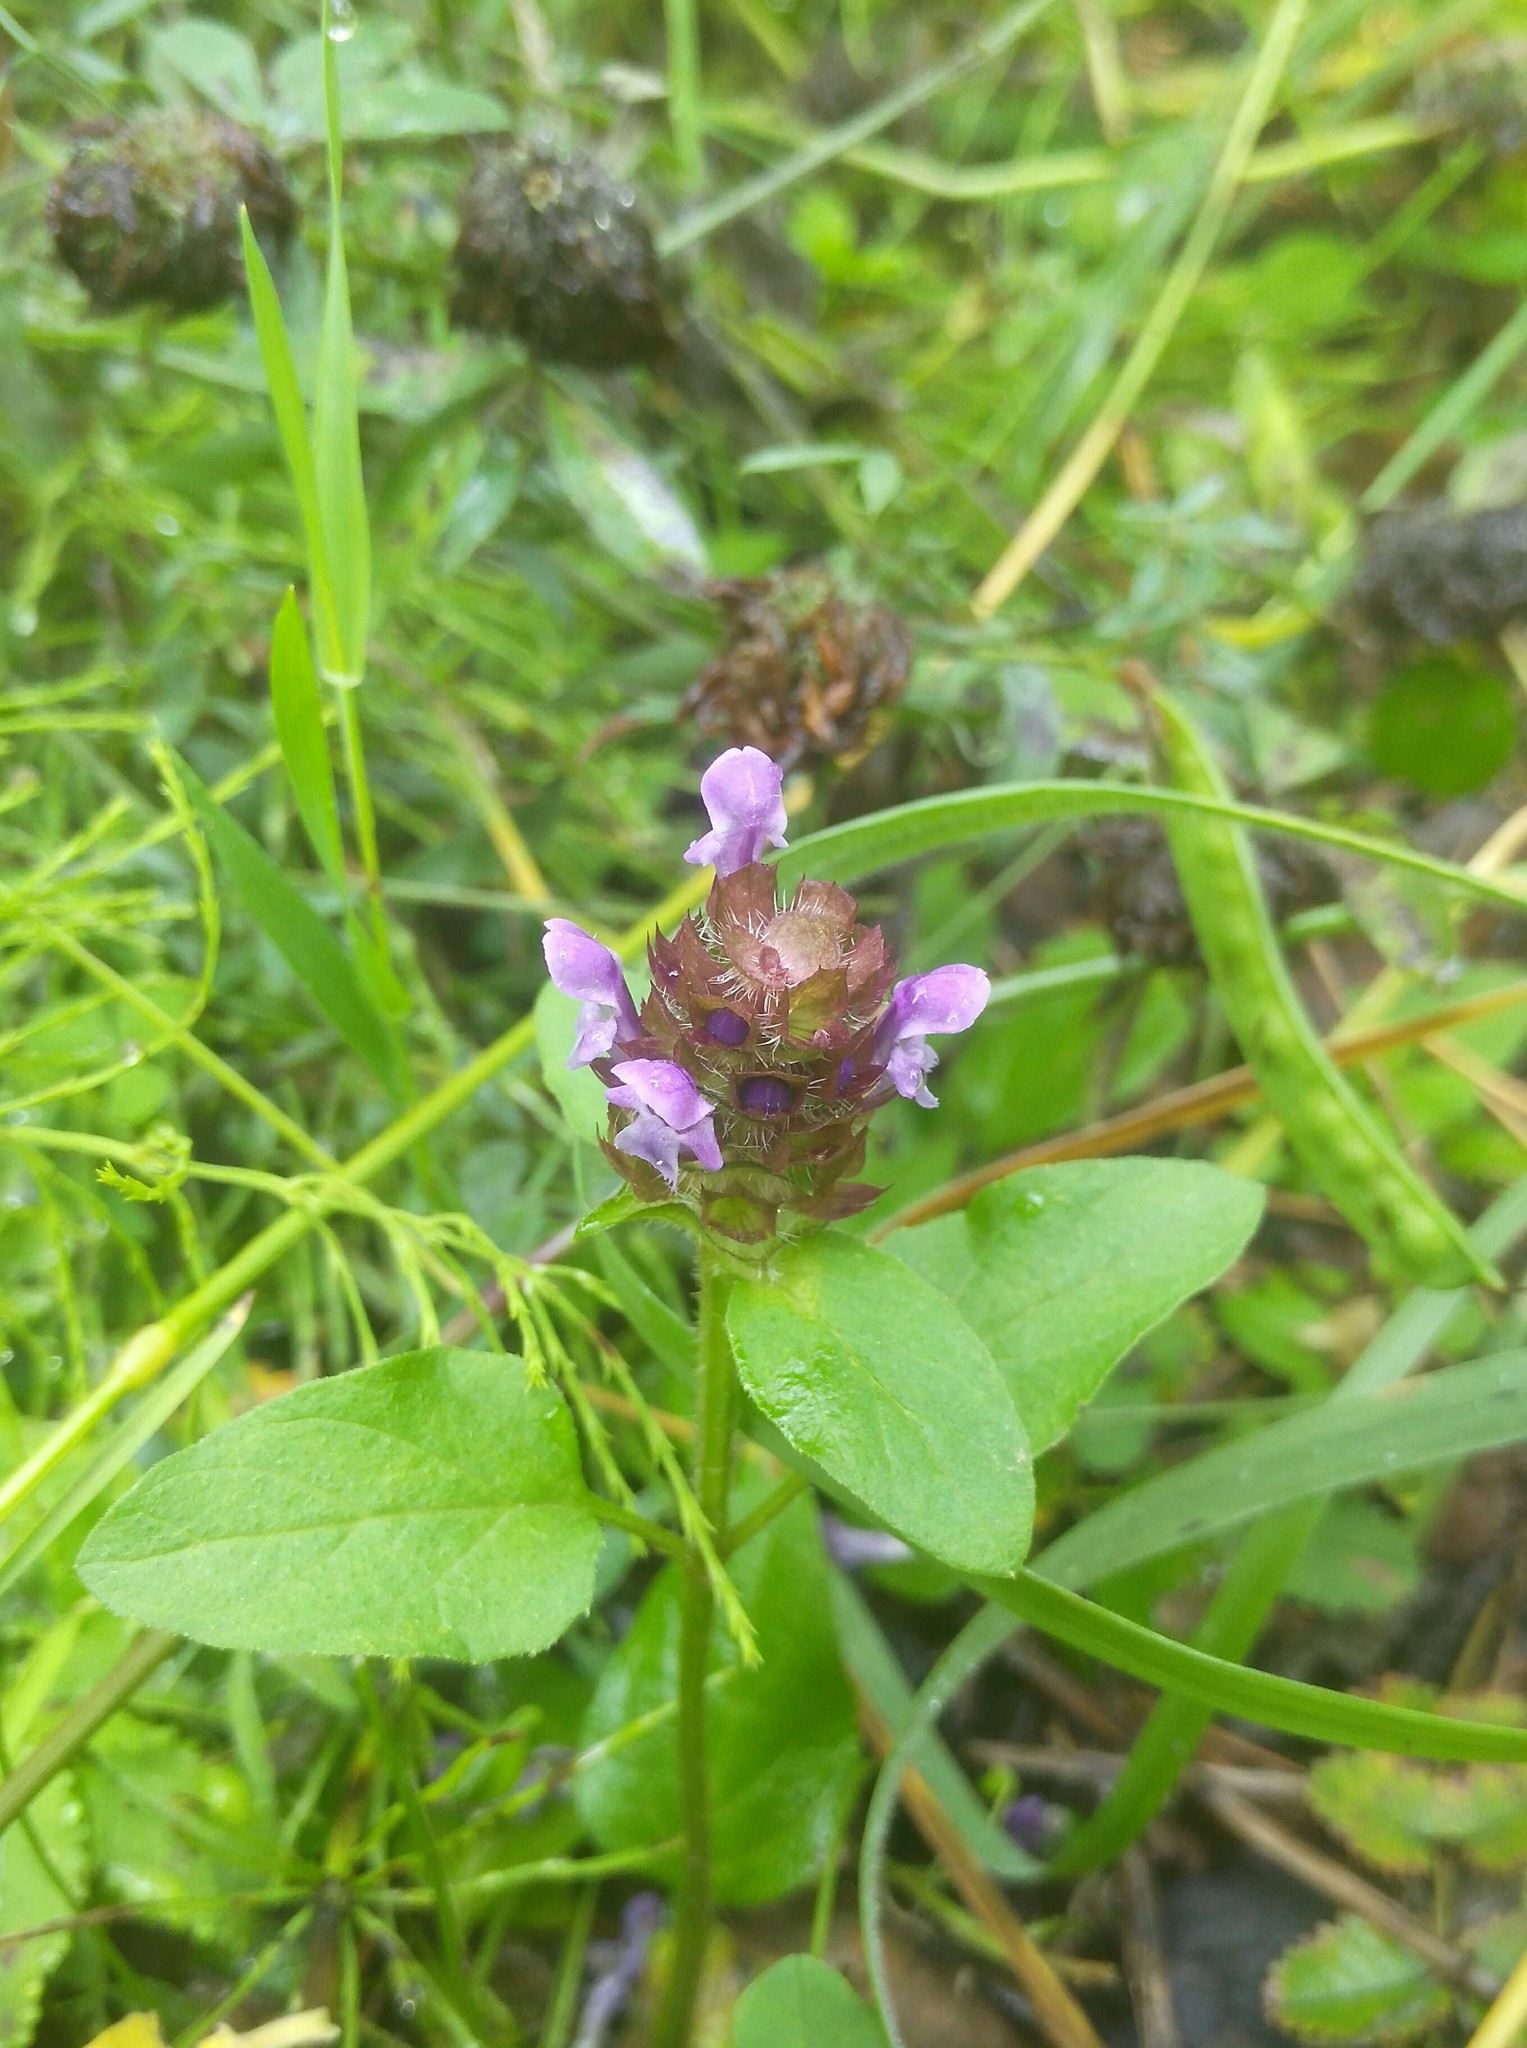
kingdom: Plantae
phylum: Tracheophyta
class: Magnoliopsida
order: Lamiales
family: Lamiaceae
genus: Prunella
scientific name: Prunella vulgaris
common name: Heal-all
